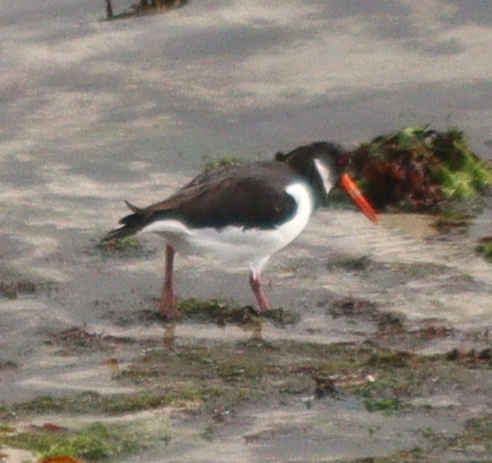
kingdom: Animalia
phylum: Chordata
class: Aves
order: Charadriiformes
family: Haematopodidae
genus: Haematopus
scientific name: Haematopus ostralegus
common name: Eurasian oystercatcher
